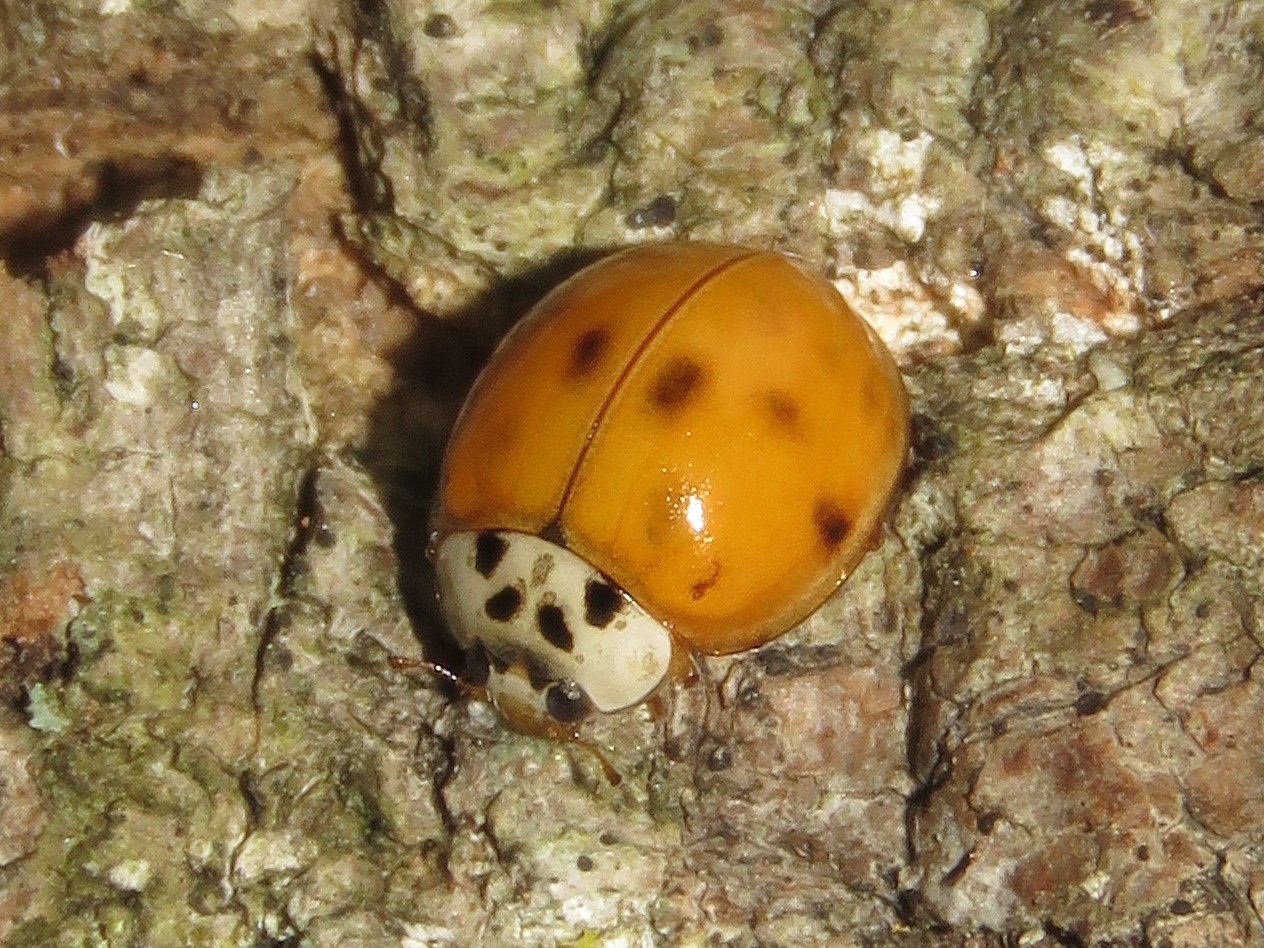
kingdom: Animalia
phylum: Arthropoda
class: Insecta
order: Coleoptera
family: Coccinellidae
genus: Harmonia
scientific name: Harmonia axyridis
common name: Harlequin ladybird
